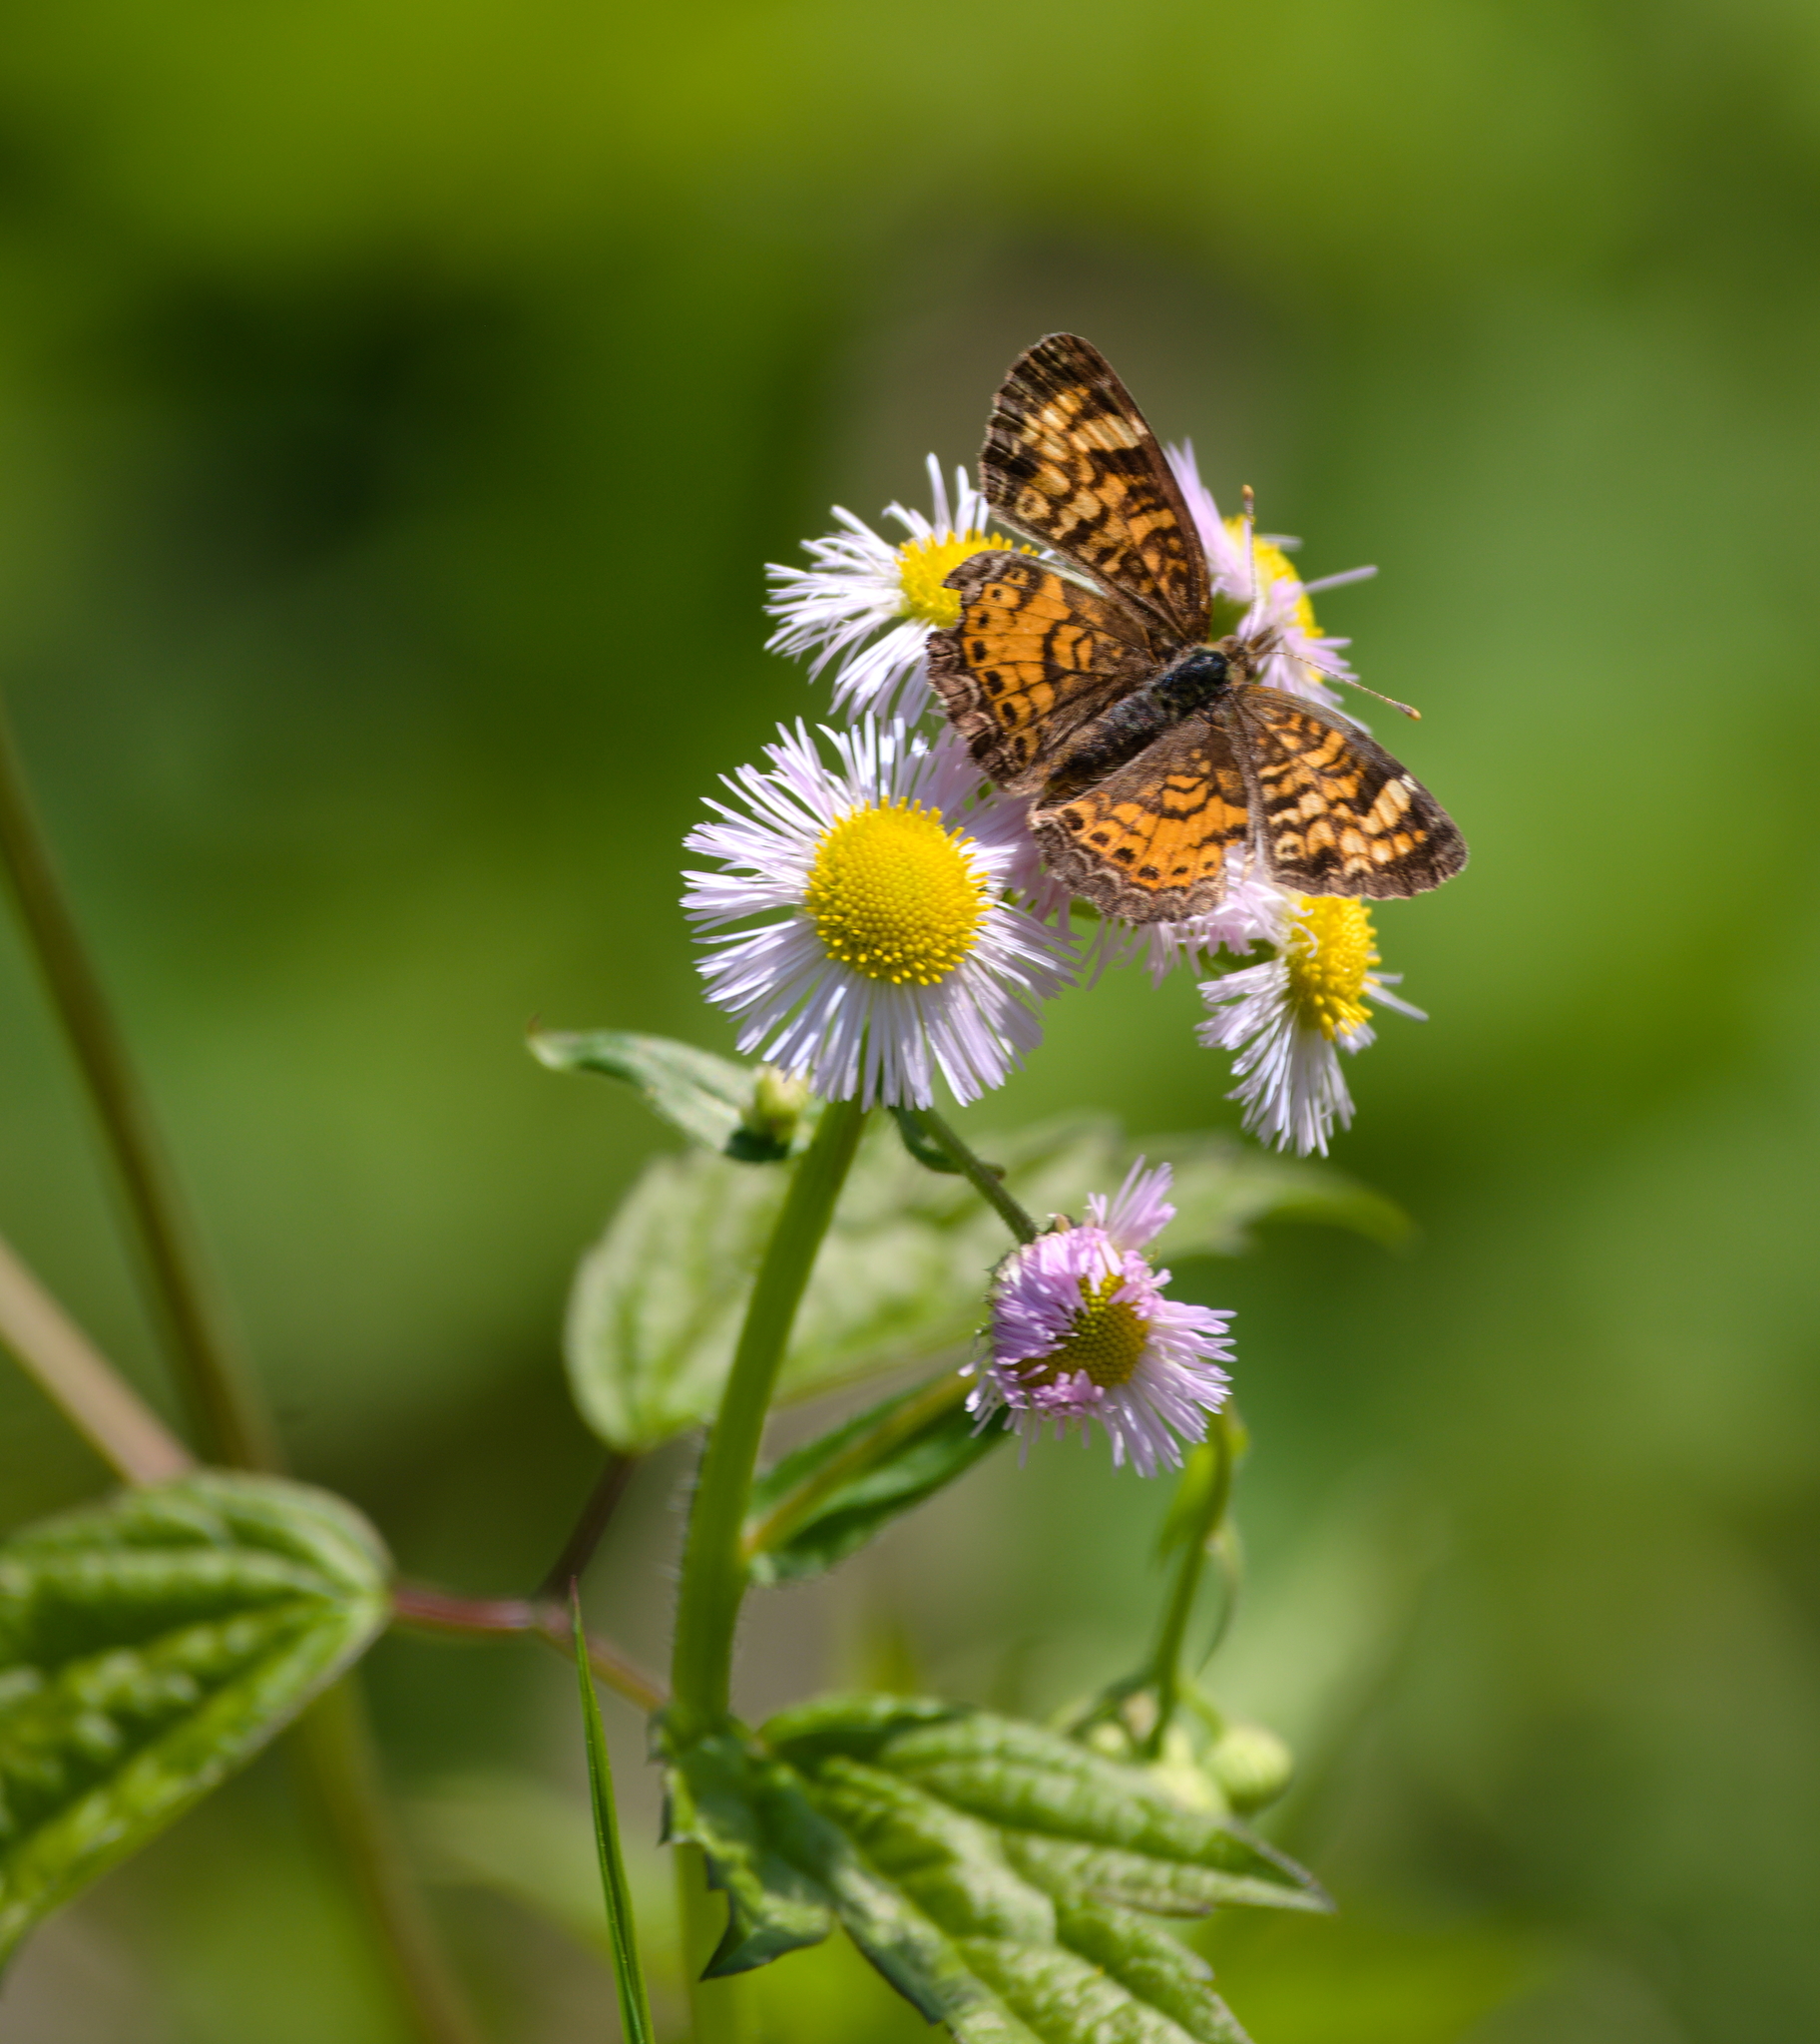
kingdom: Plantae
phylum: Tracheophyta
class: Magnoliopsida
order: Asterales
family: Asteraceae
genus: Erigeron
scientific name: Erigeron philadelphicus
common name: Robin's-plantain
